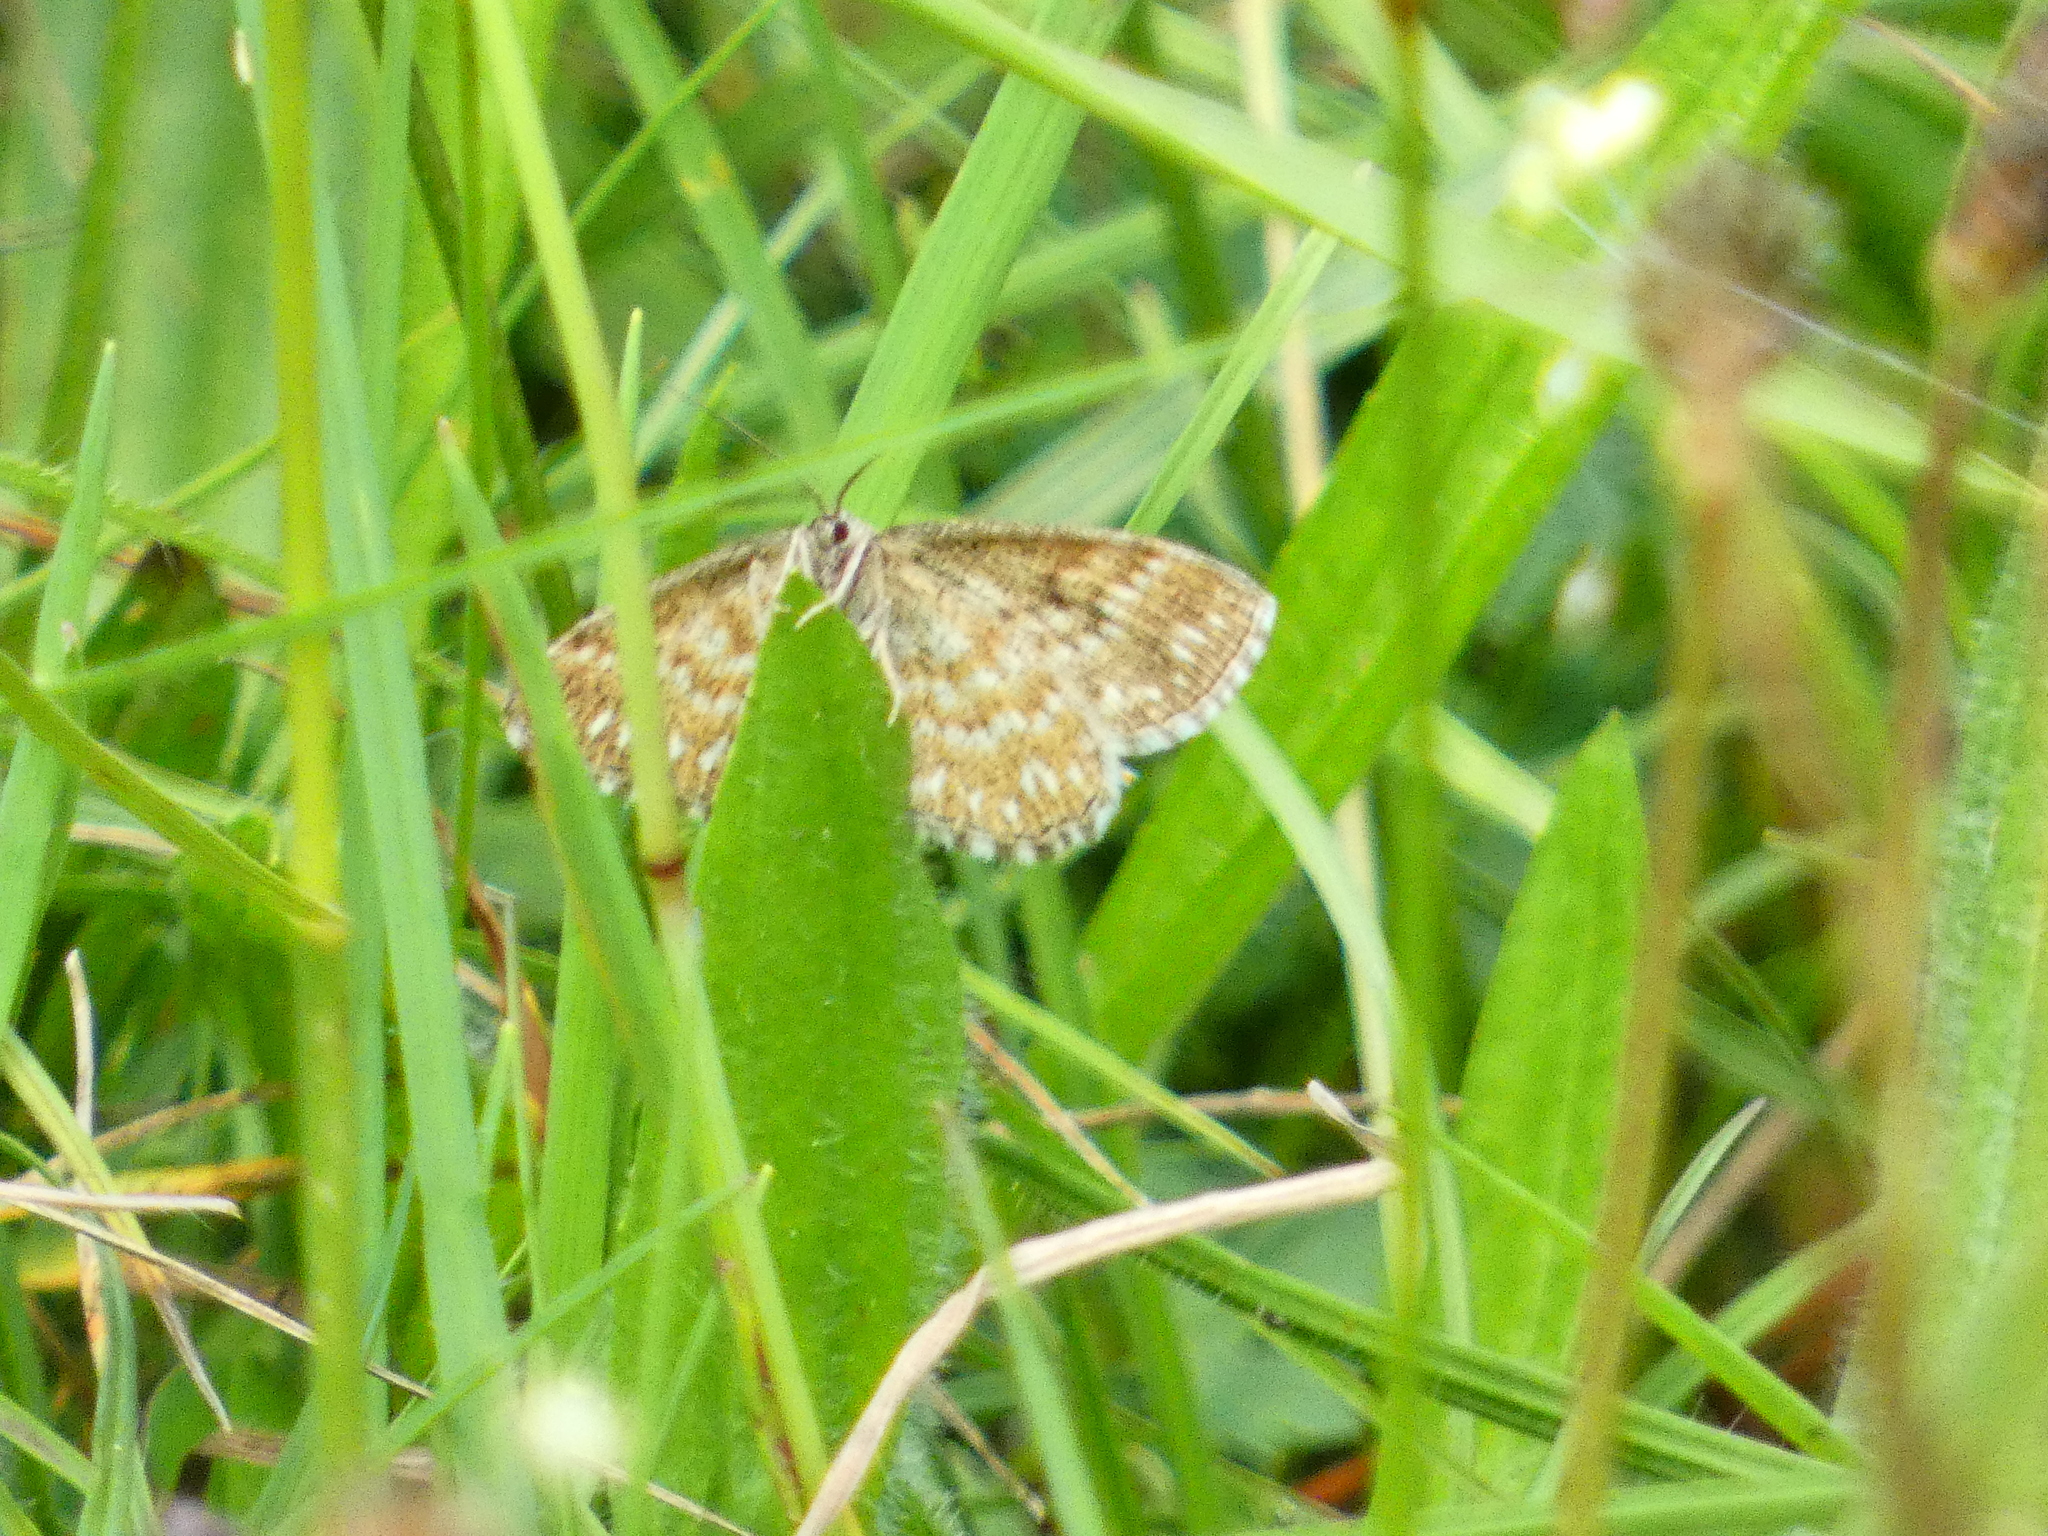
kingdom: Animalia
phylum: Arthropoda
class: Insecta
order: Lepidoptera
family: Geometridae
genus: Scopula
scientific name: Scopula immorata
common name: Lewes wave
